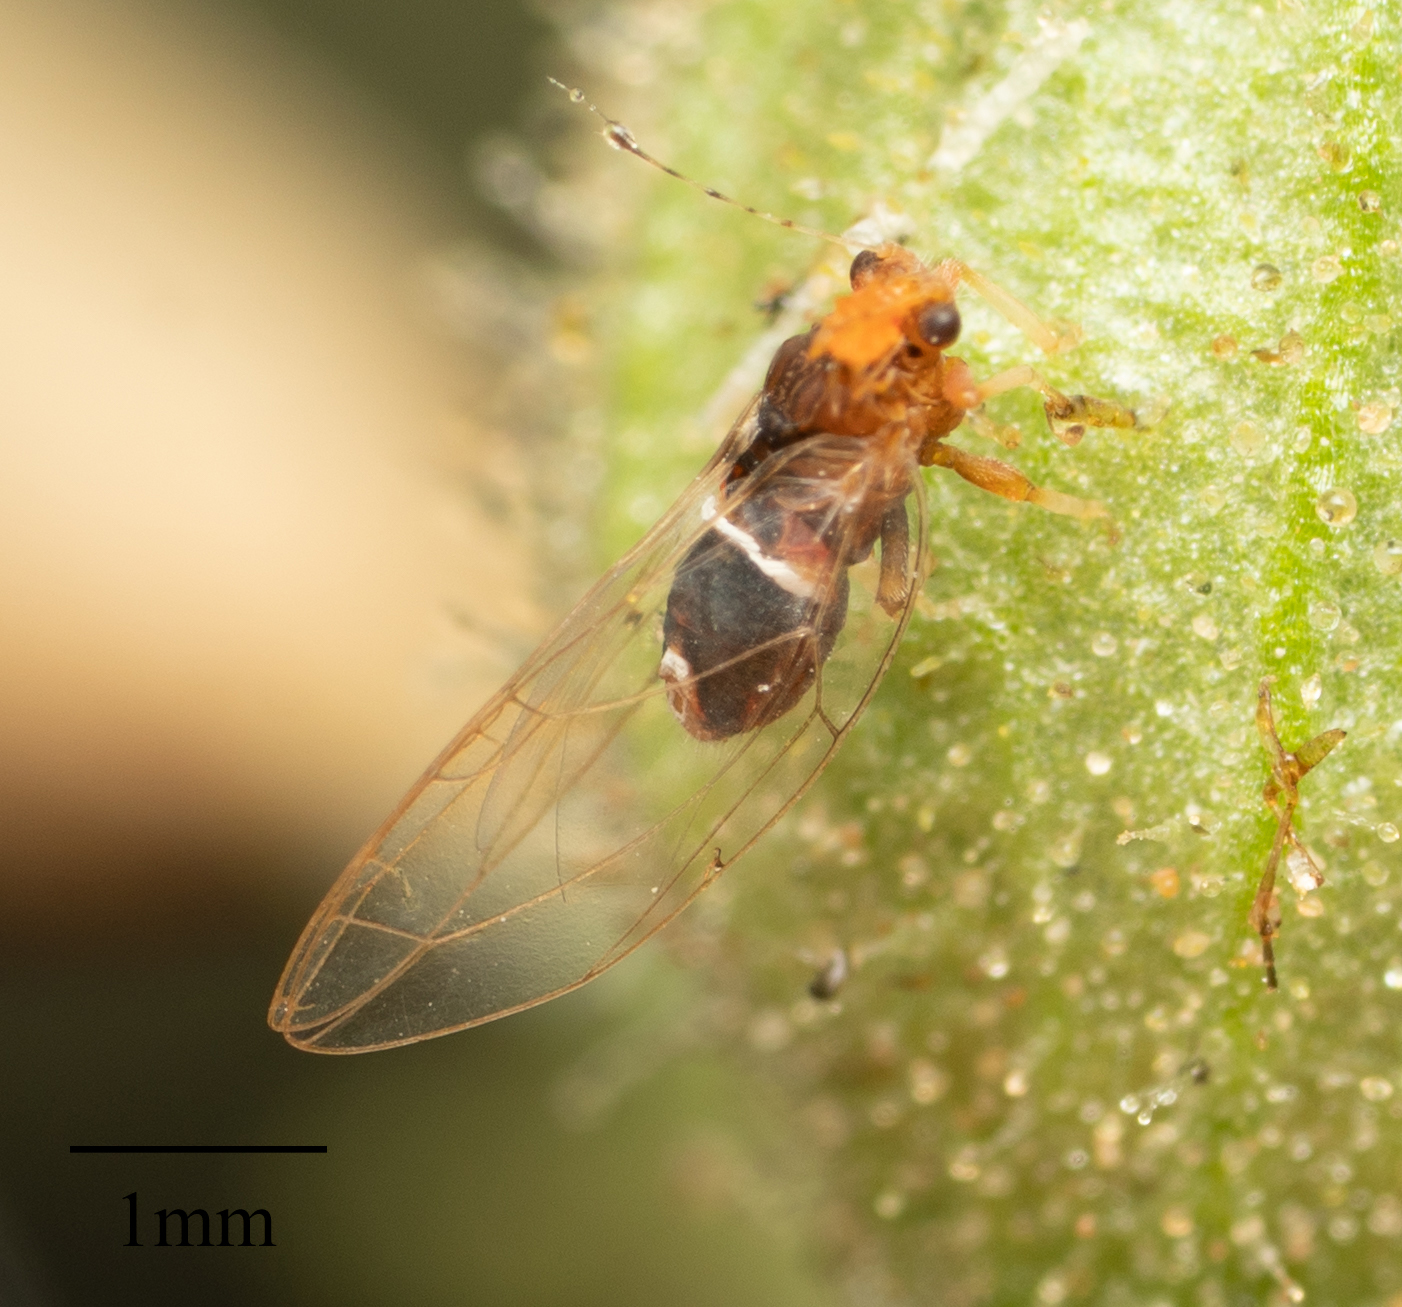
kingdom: Animalia
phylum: Arthropoda
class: Insecta
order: Hemiptera
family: Triozidae
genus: Bactericera
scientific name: Bactericera dorsalis
